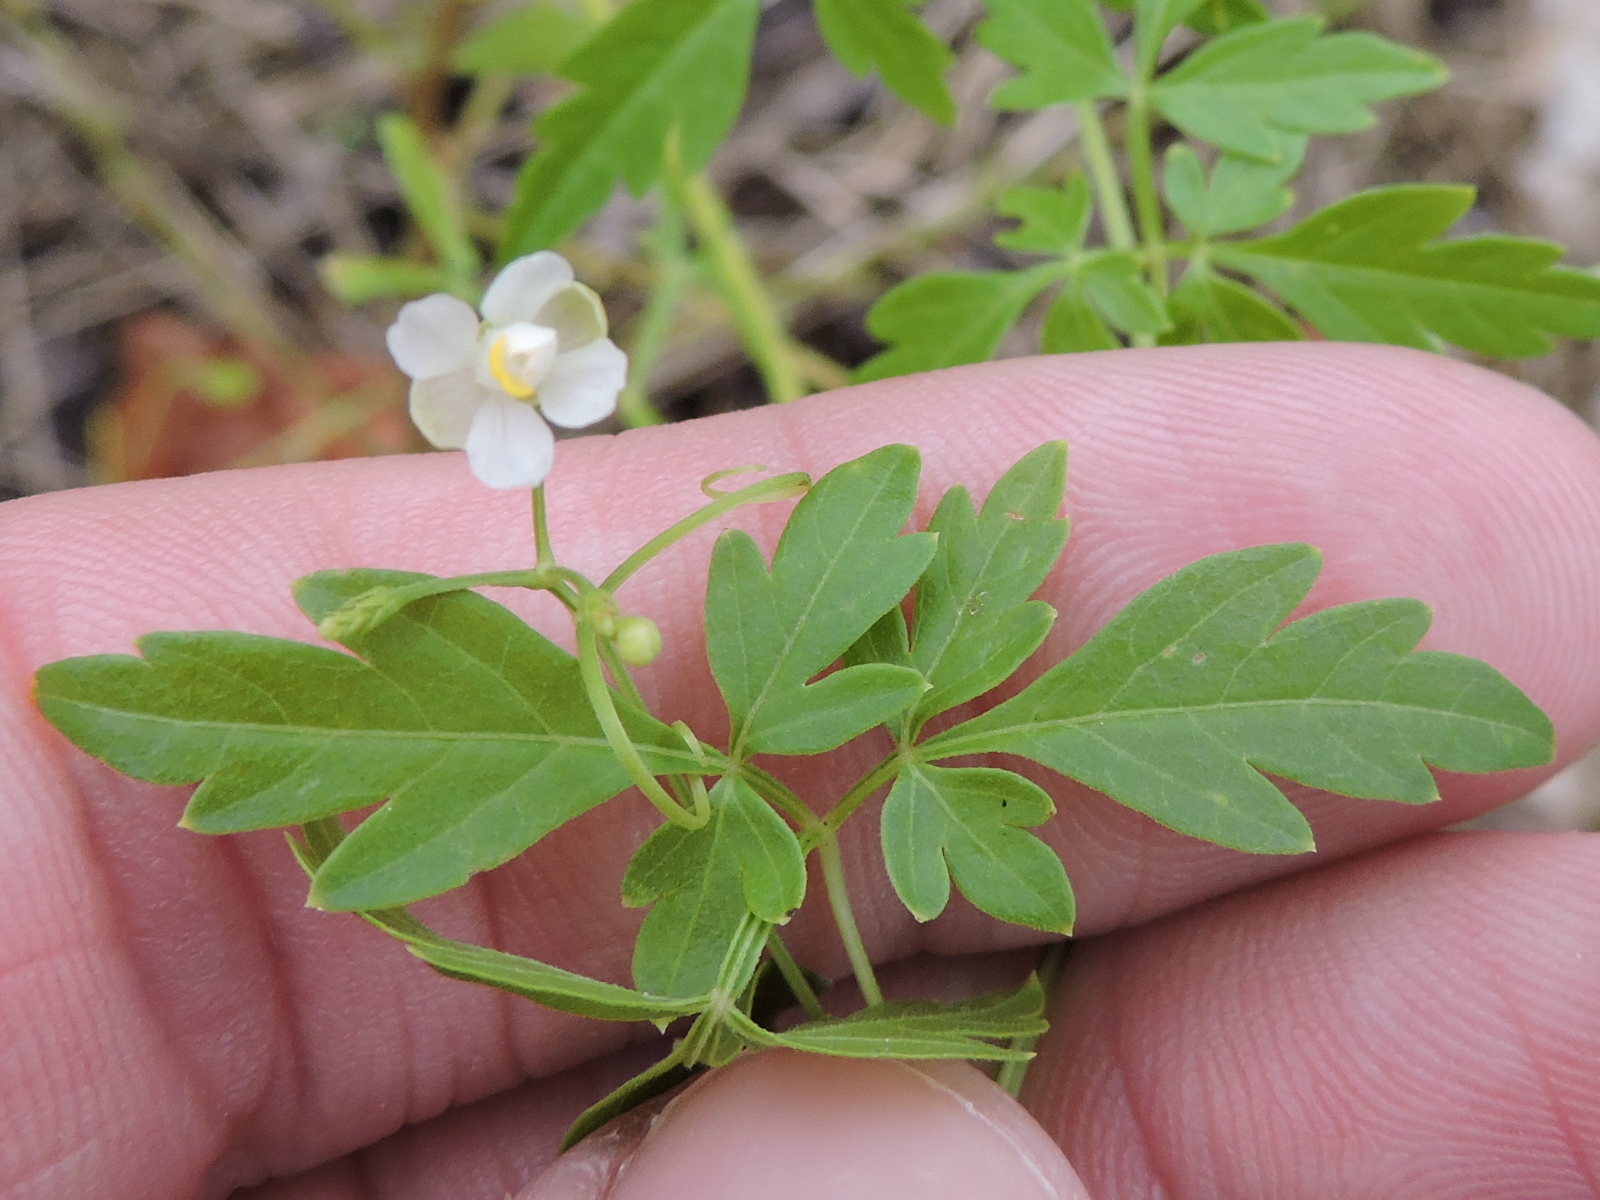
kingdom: Plantae
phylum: Tracheophyta
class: Magnoliopsida
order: Sapindales
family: Sapindaceae
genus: Cardiospermum
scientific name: Cardiospermum halicacabum
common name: Balloon vine
